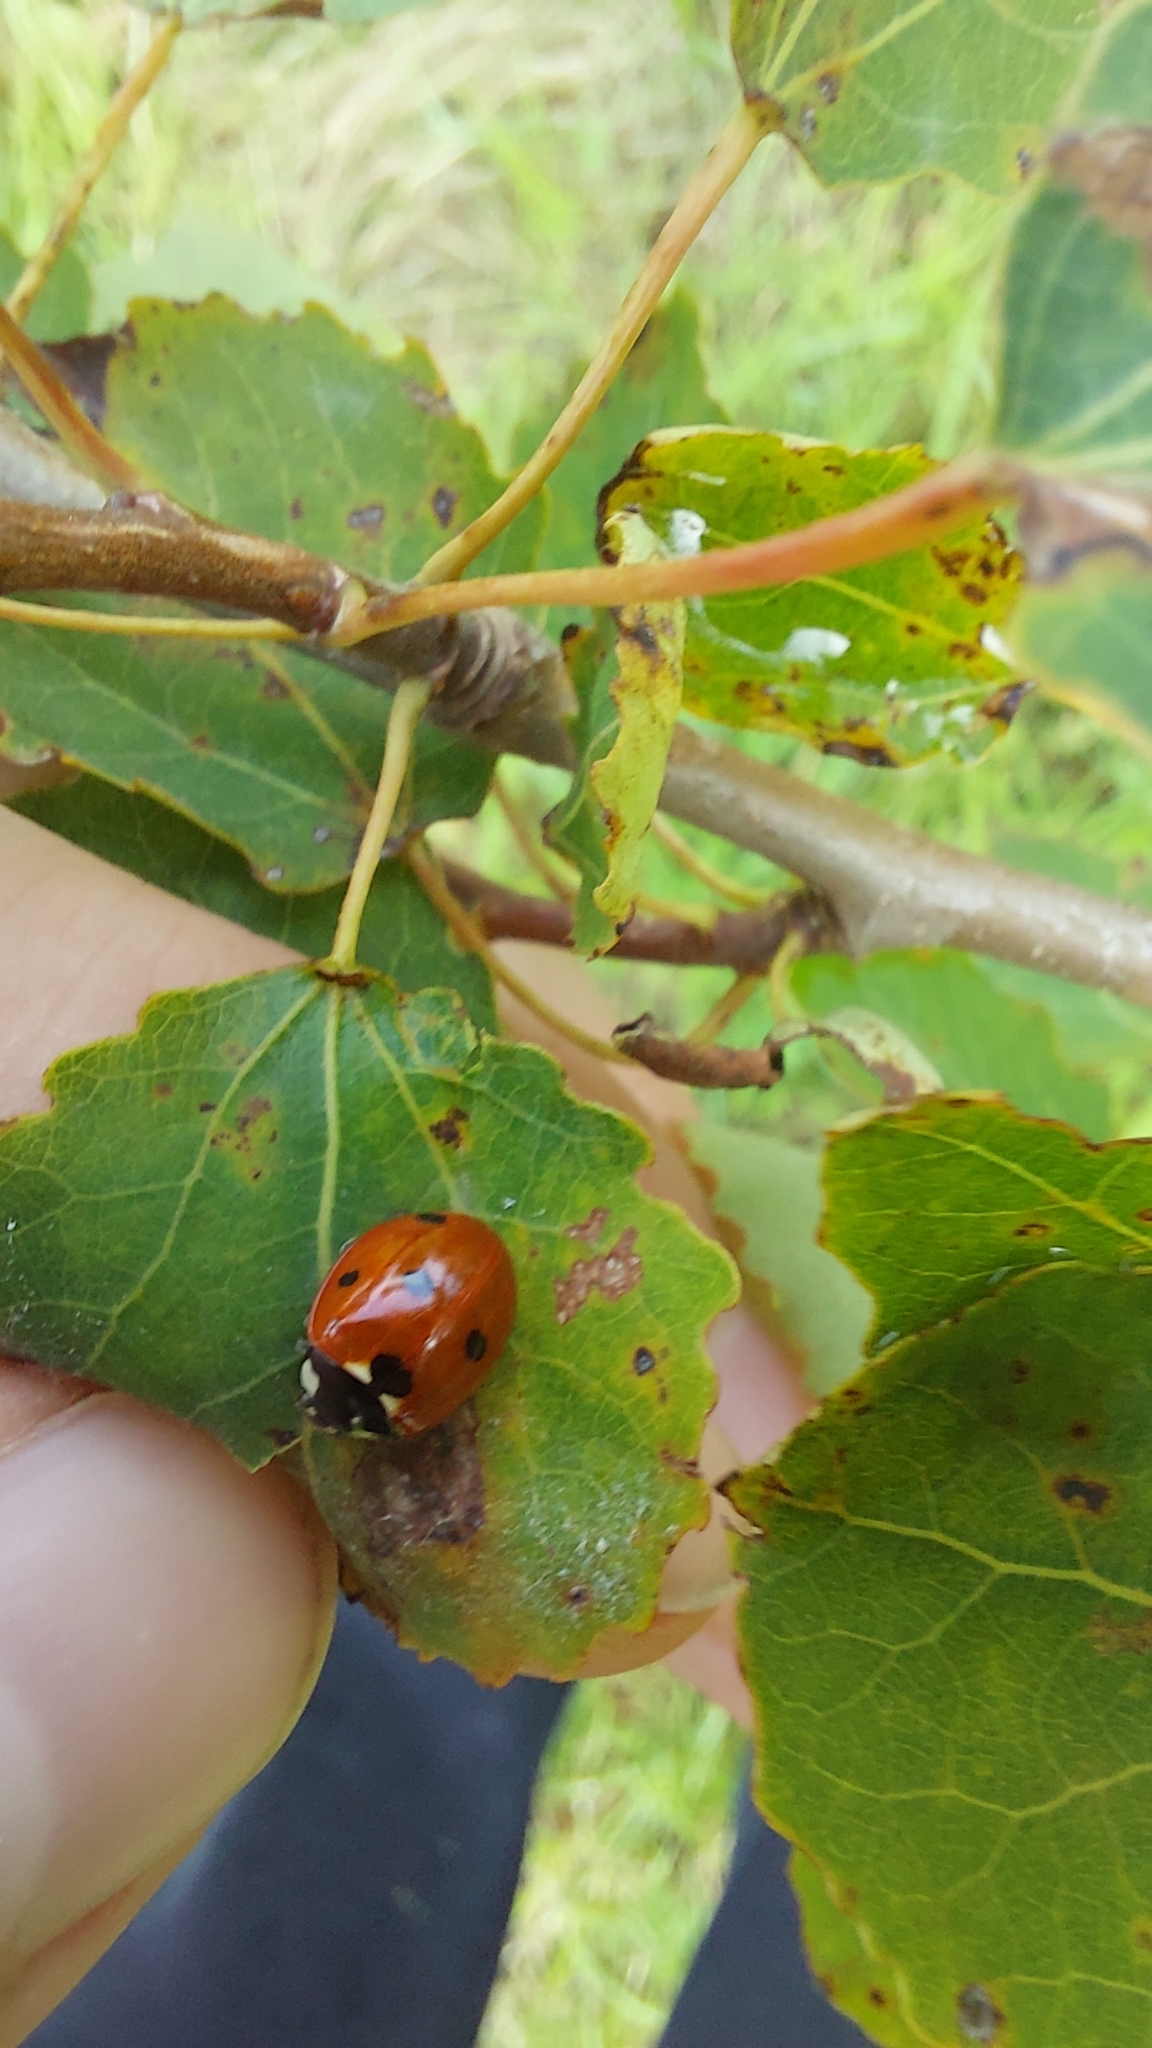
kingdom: Animalia
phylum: Arthropoda
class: Insecta
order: Coleoptera
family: Coccinellidae
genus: Coccinella
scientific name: Coccinella septempunctata
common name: Sevenspotted lady beetle
